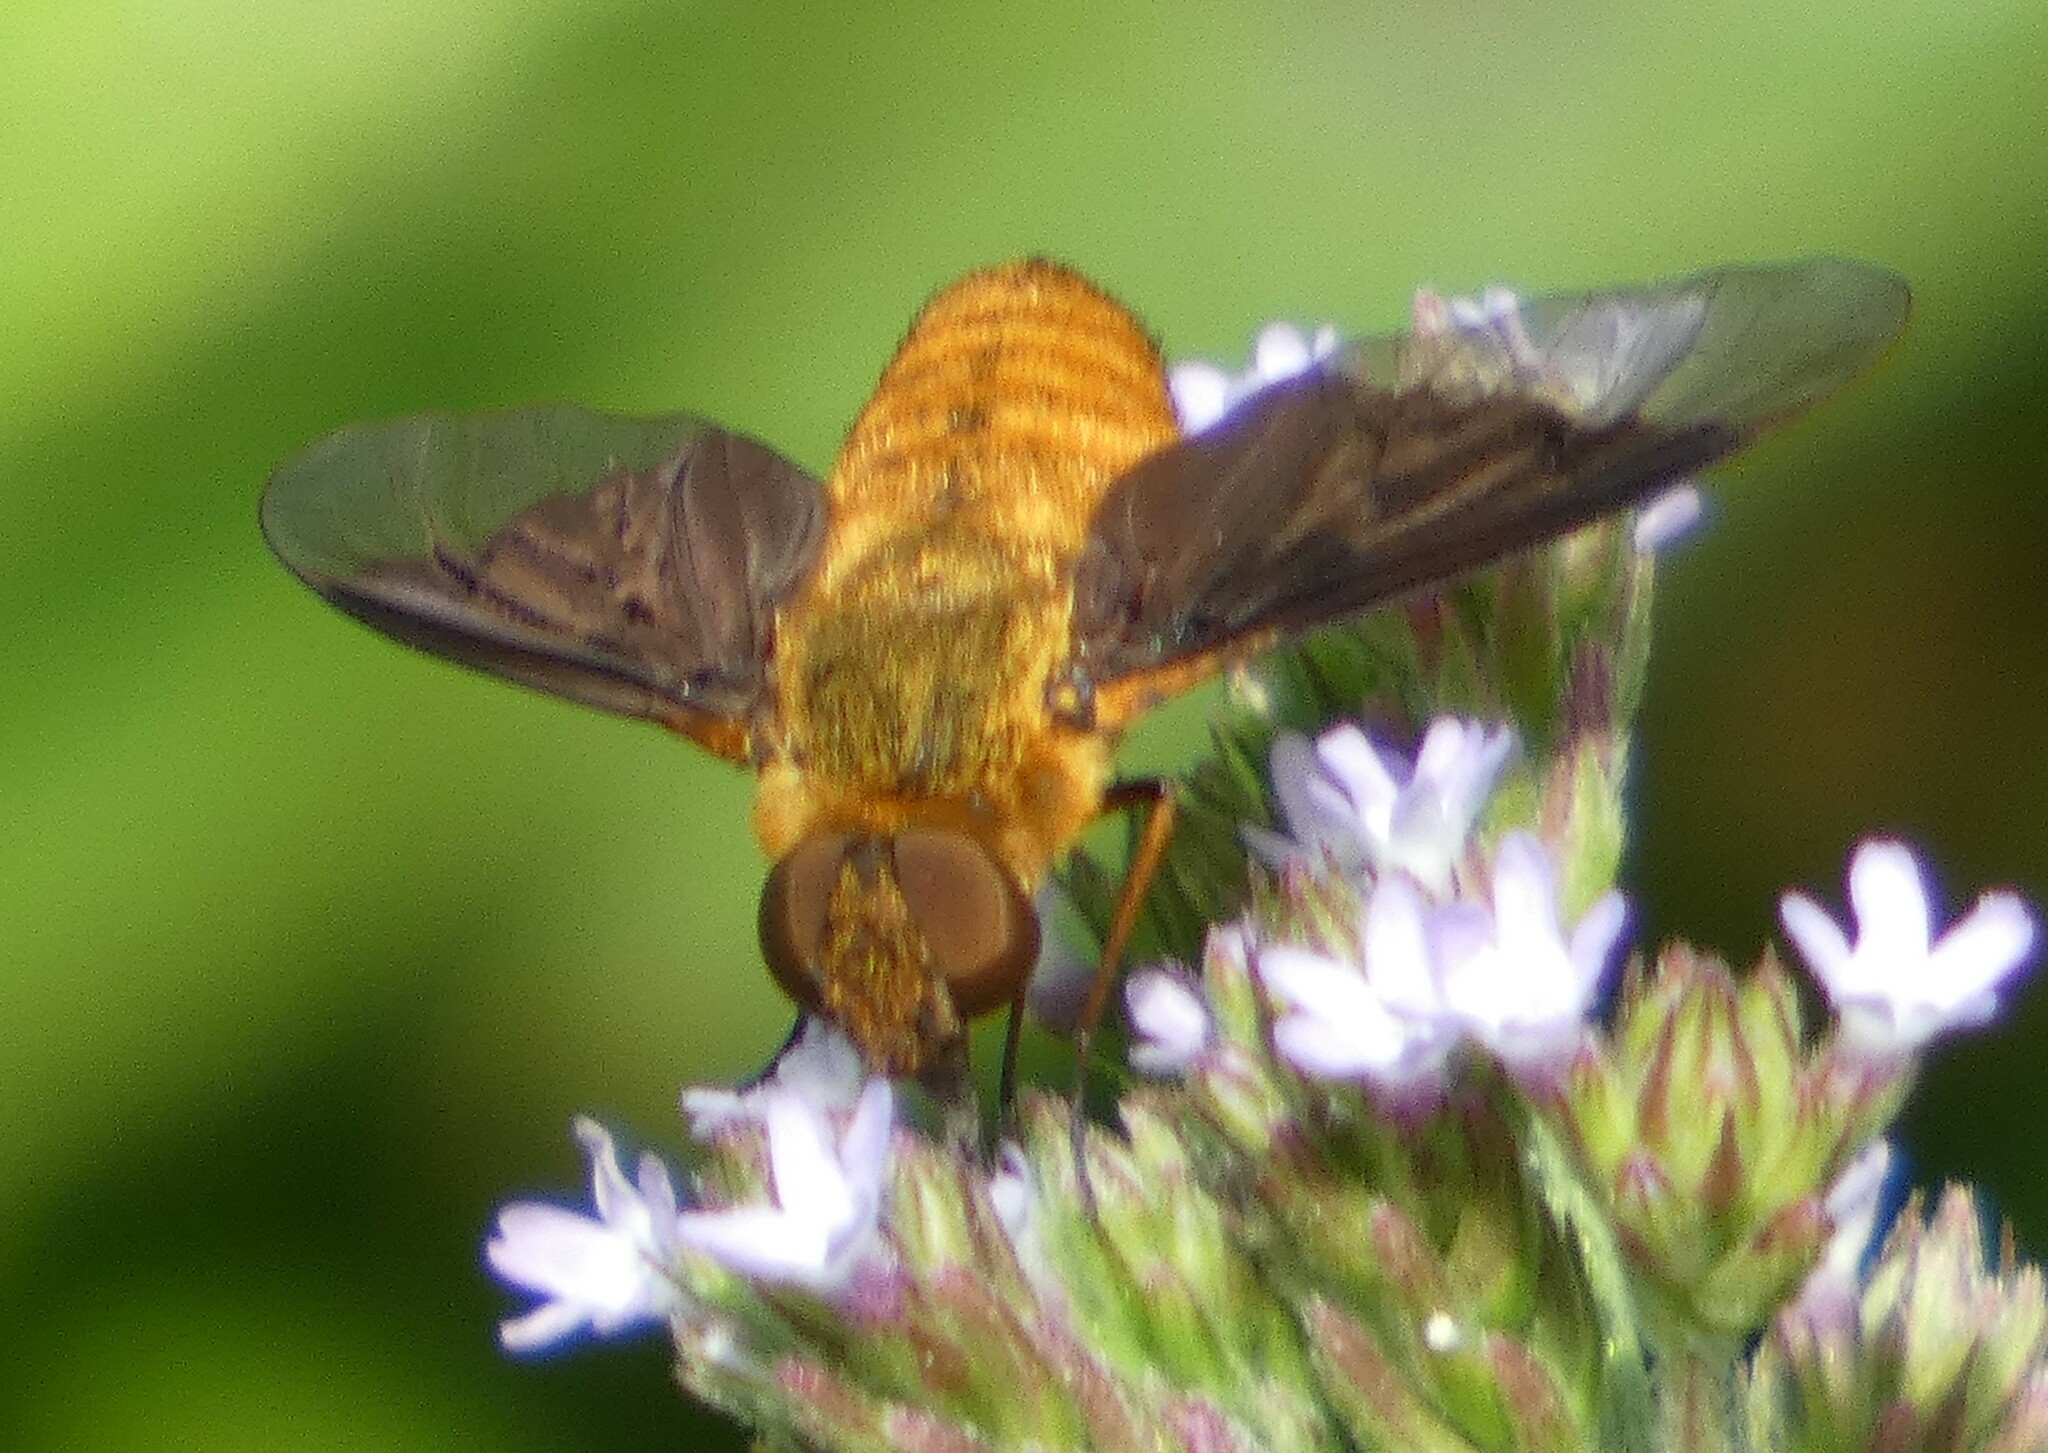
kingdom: Animalia
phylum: Arthropoda
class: Insecta
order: Diptera
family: Bombyliidae
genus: Chrysanthrax
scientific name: Chrysanthrax cypris
